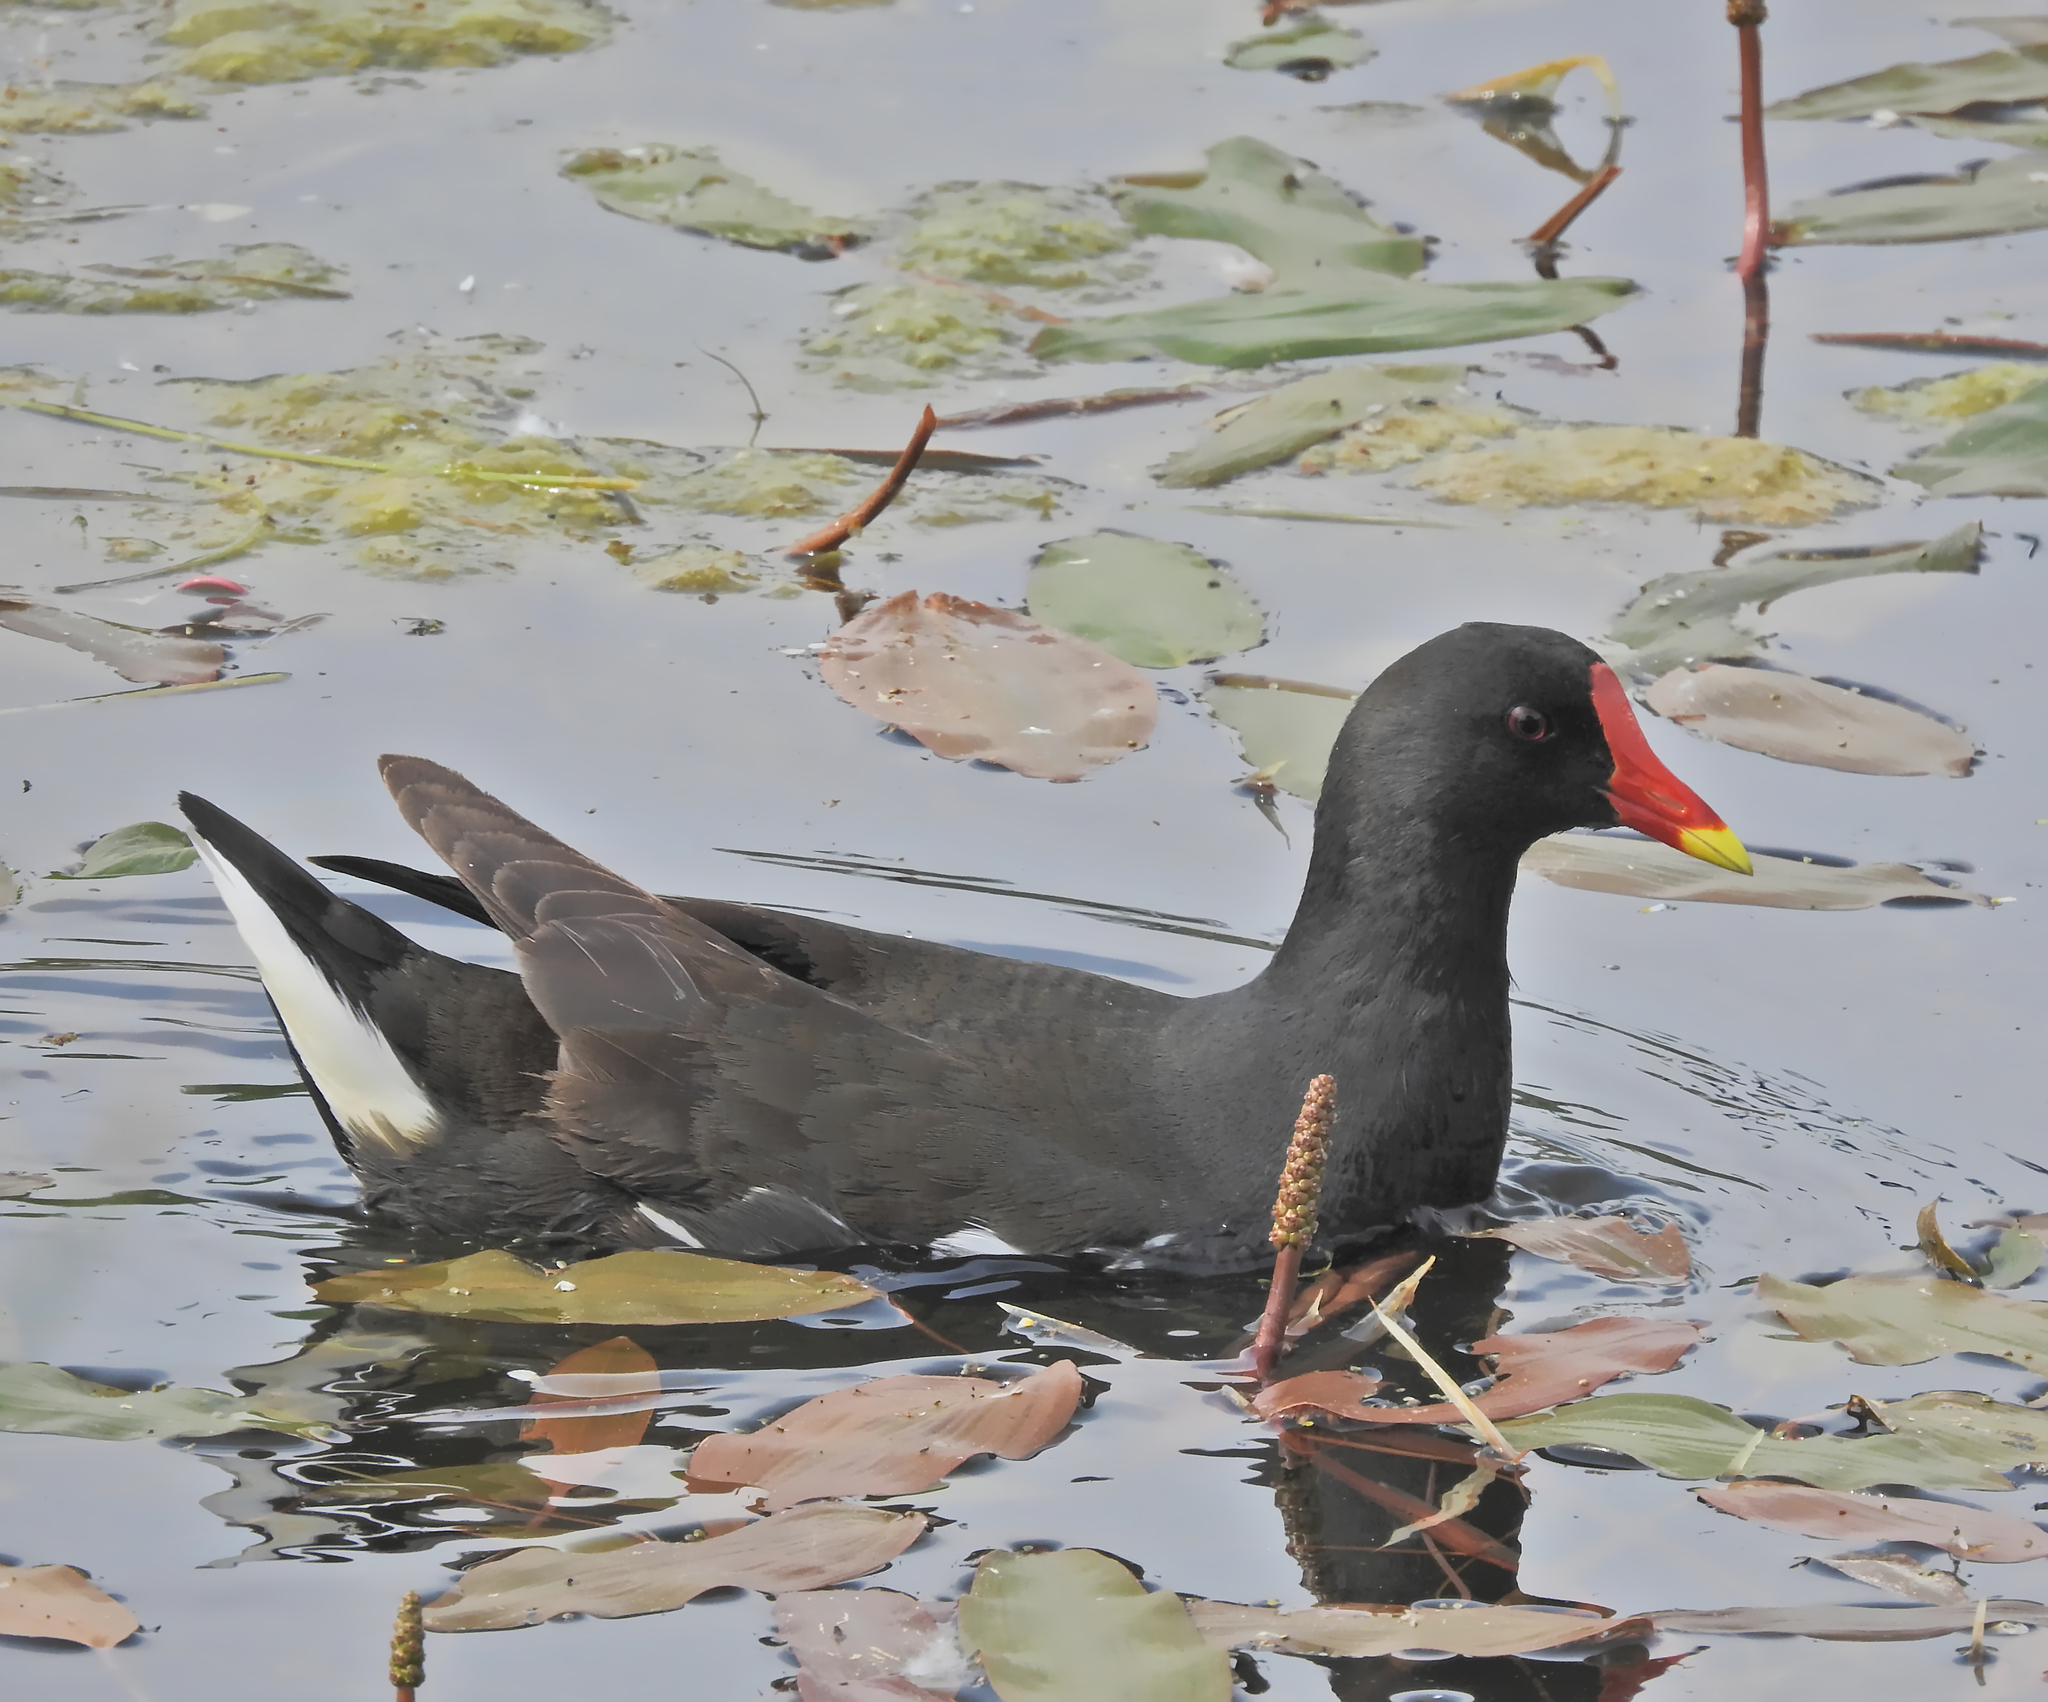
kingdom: Animalia
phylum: Chordata
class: Aves
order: Gruiformes
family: Rallidae
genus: Gallinula
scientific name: Gallinula chloropus
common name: Common moorhen
